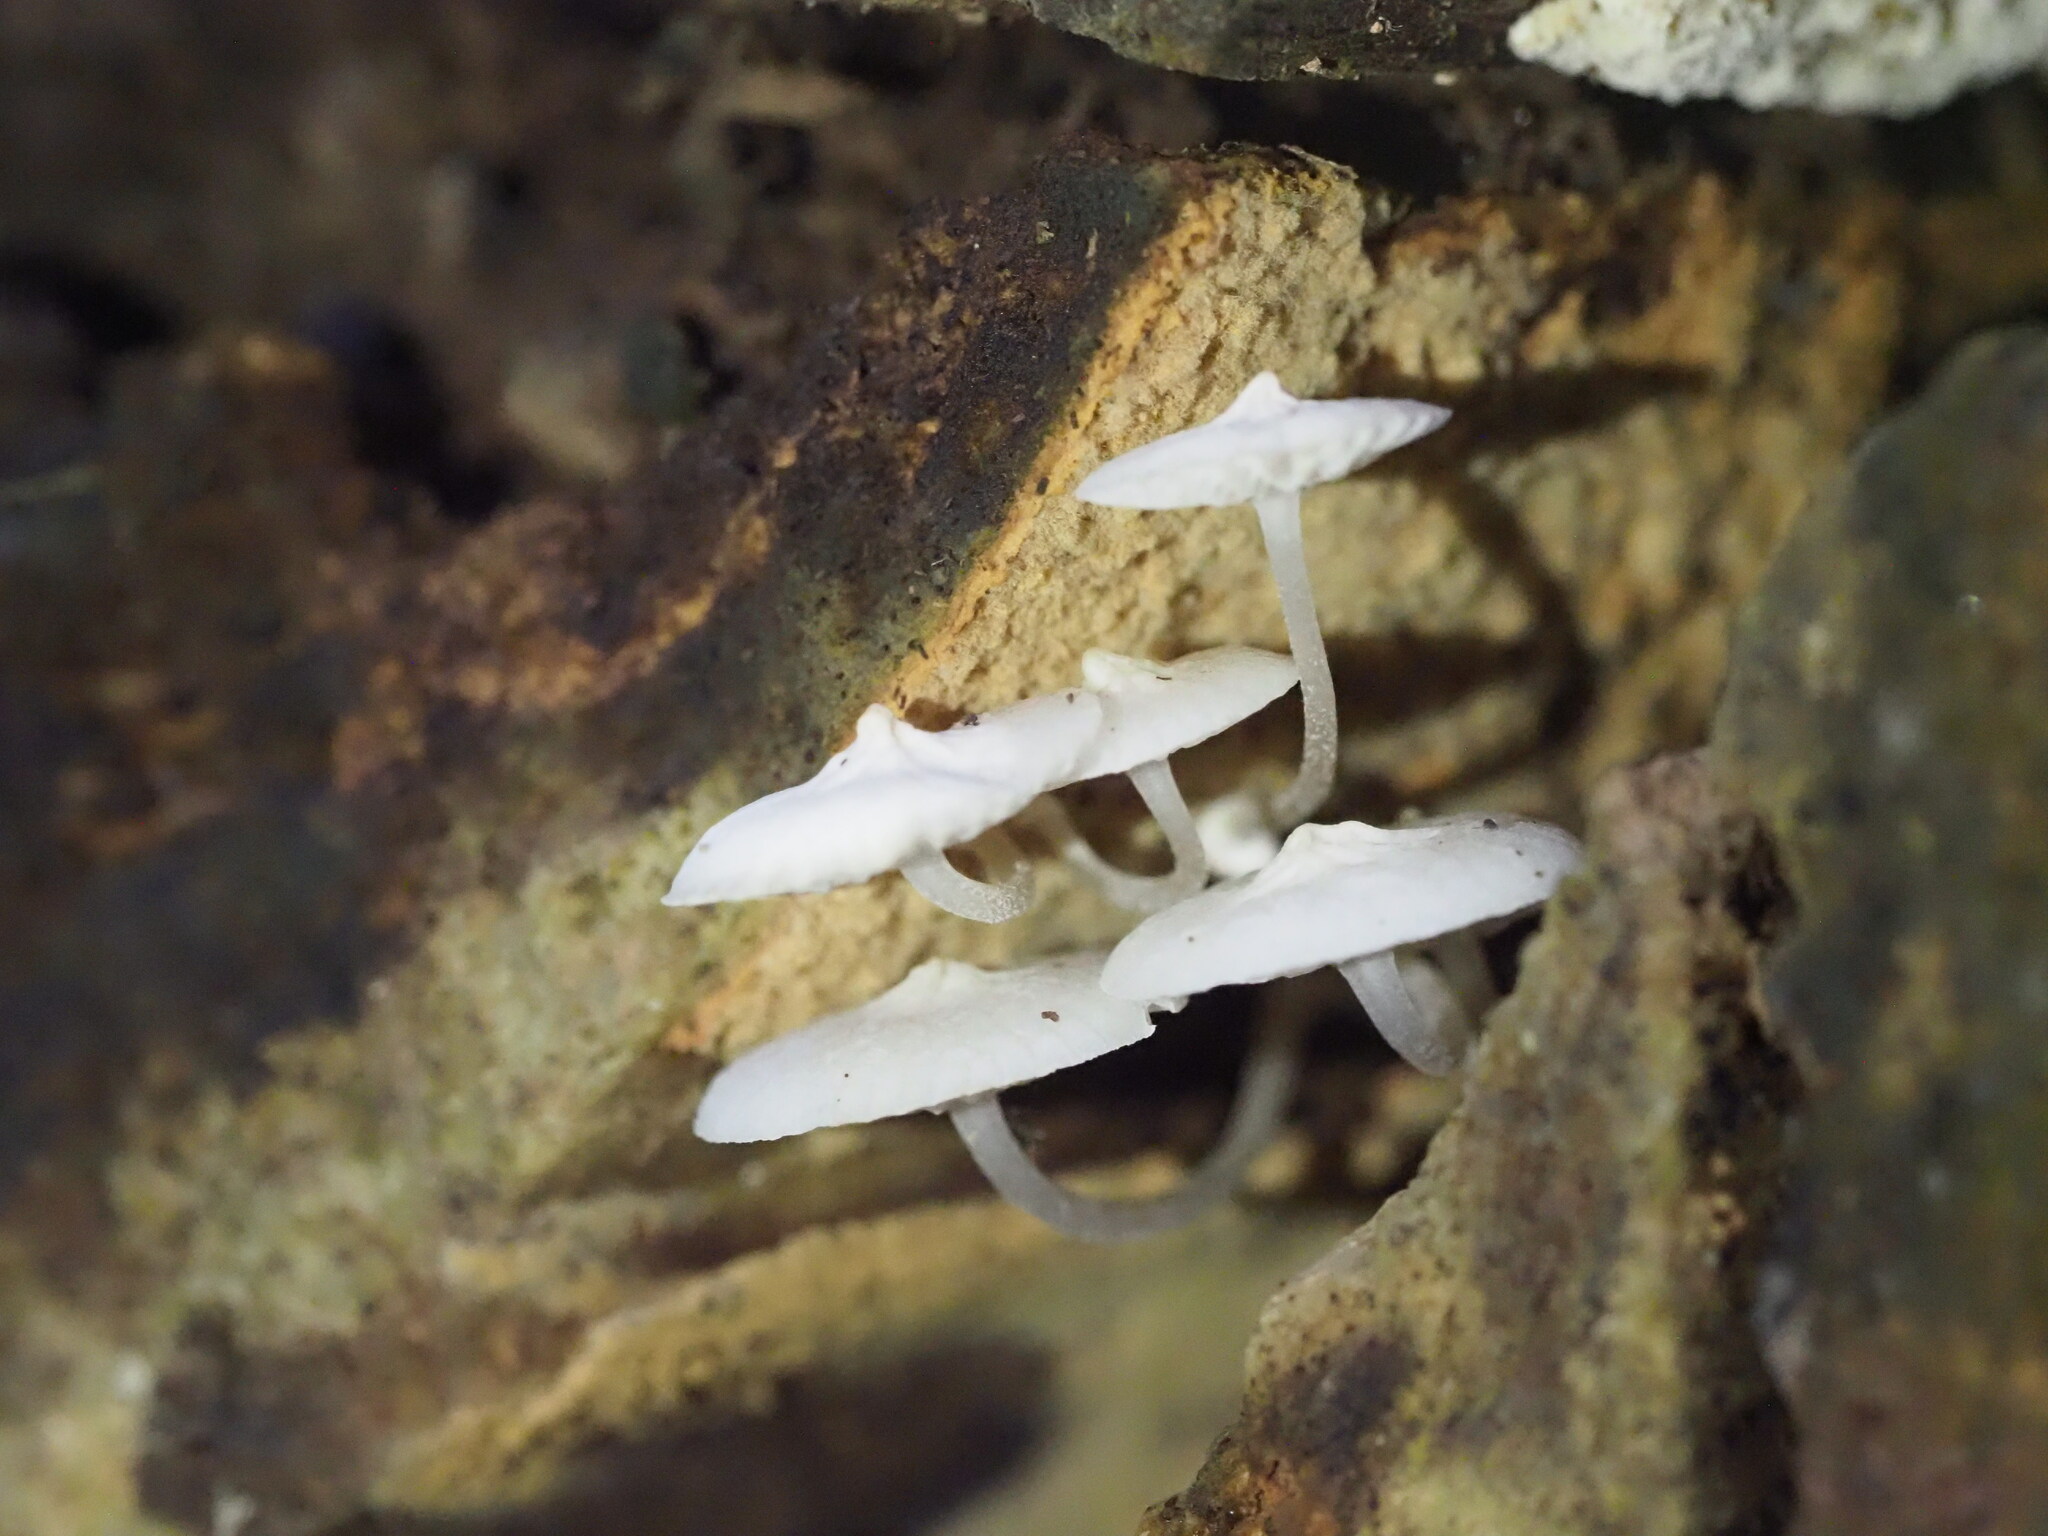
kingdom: Fungi
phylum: Basidiomycota
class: Agaricomycetes
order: Agaricales
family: Mycenaceae
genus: Filoboletus
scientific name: Filoboletus manipularis
